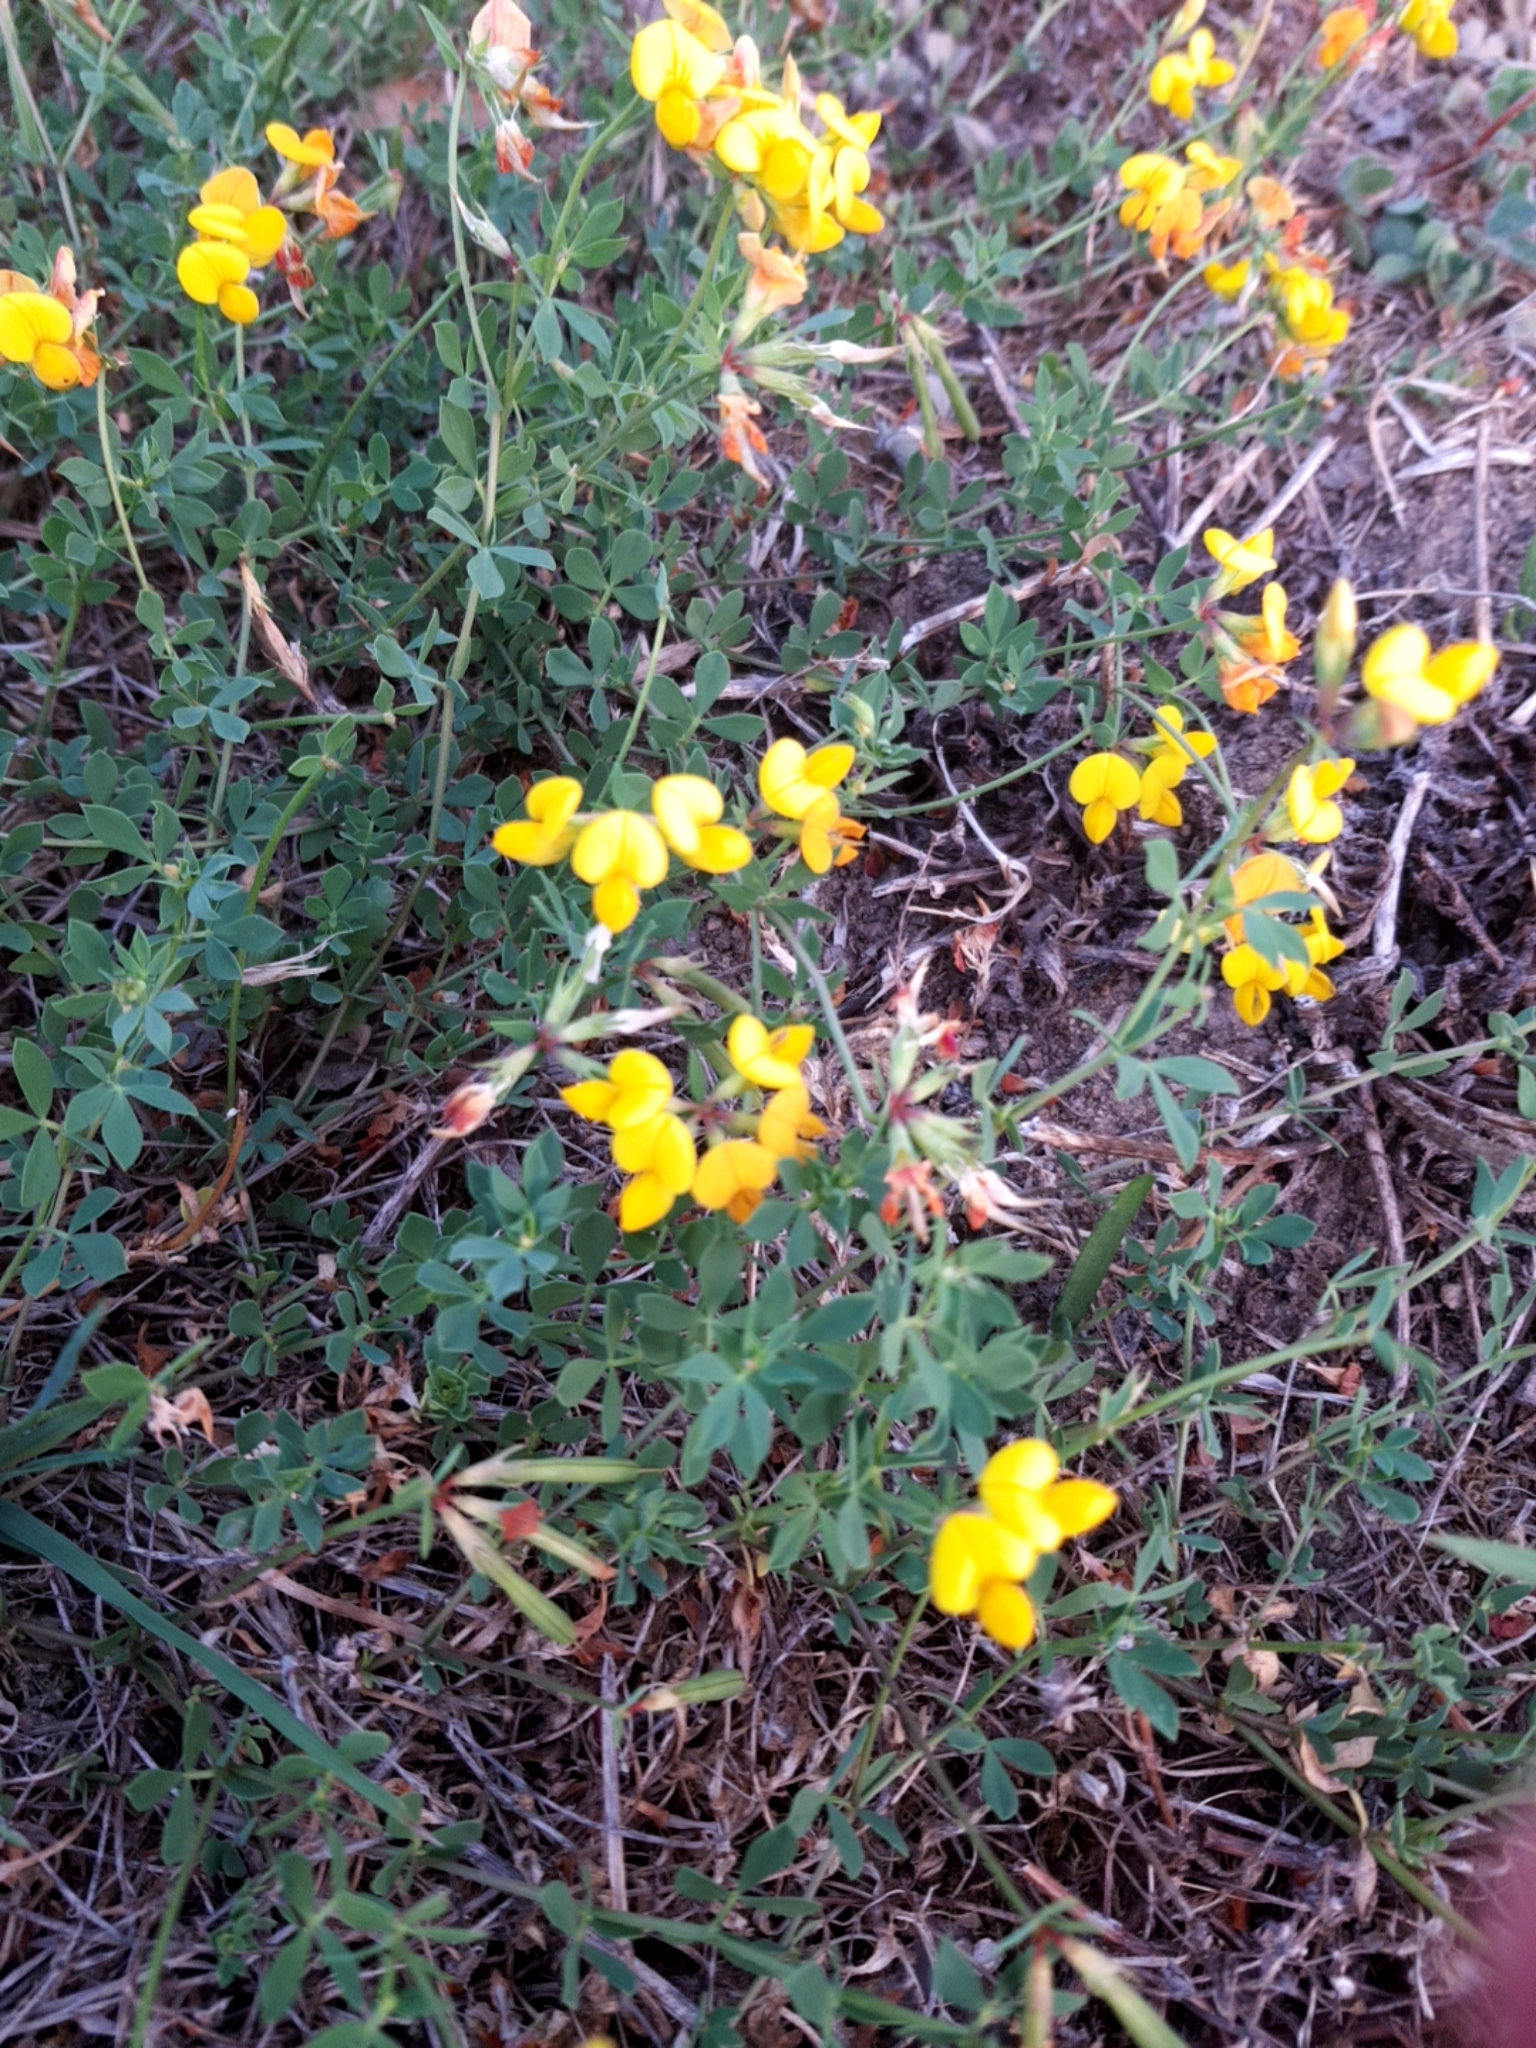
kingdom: Plantae
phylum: Tracheophyta
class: Magnoliopsida
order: Fabales
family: Fabaceae
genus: Lotus
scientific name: Lotus corniculatus
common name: Common bird's-foot-trefoil
